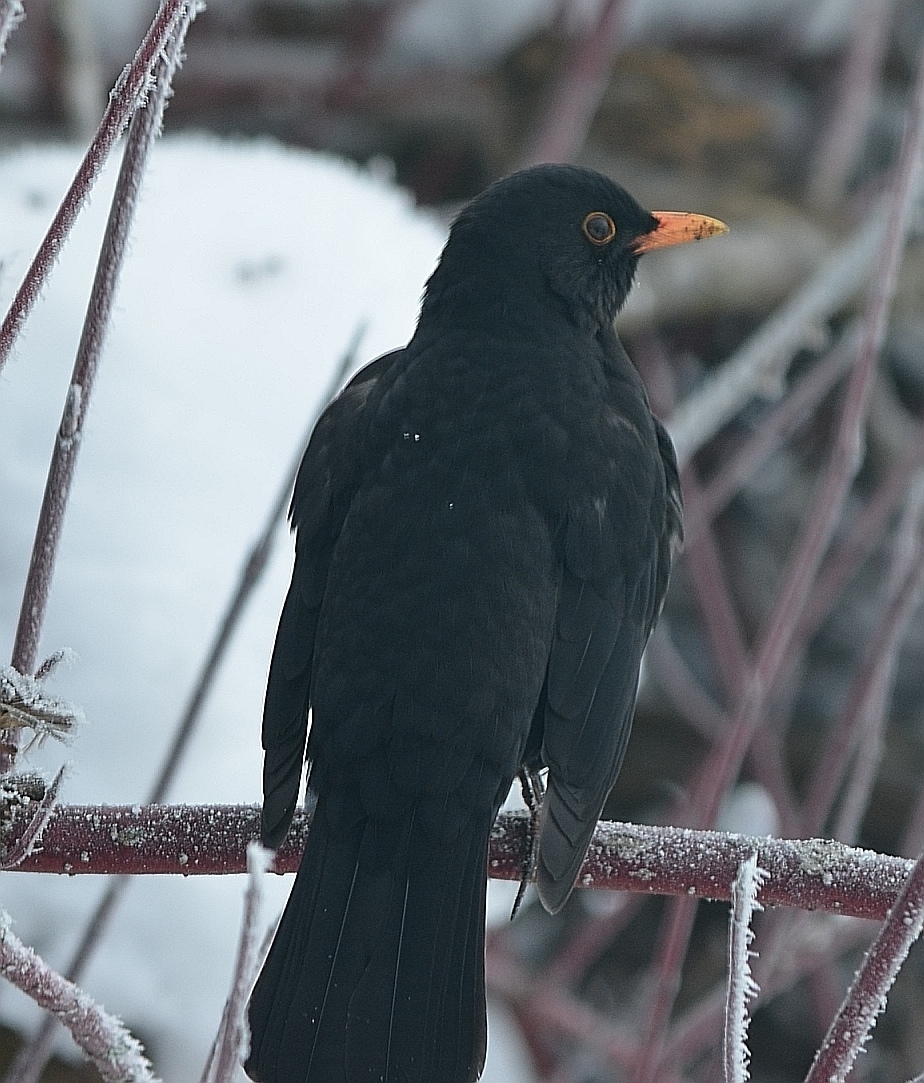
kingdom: Animalia
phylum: Chordata
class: Aves
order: Passeriformes
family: Turdidae
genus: Turdus
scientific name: Turdus merula
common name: Common blackbird
